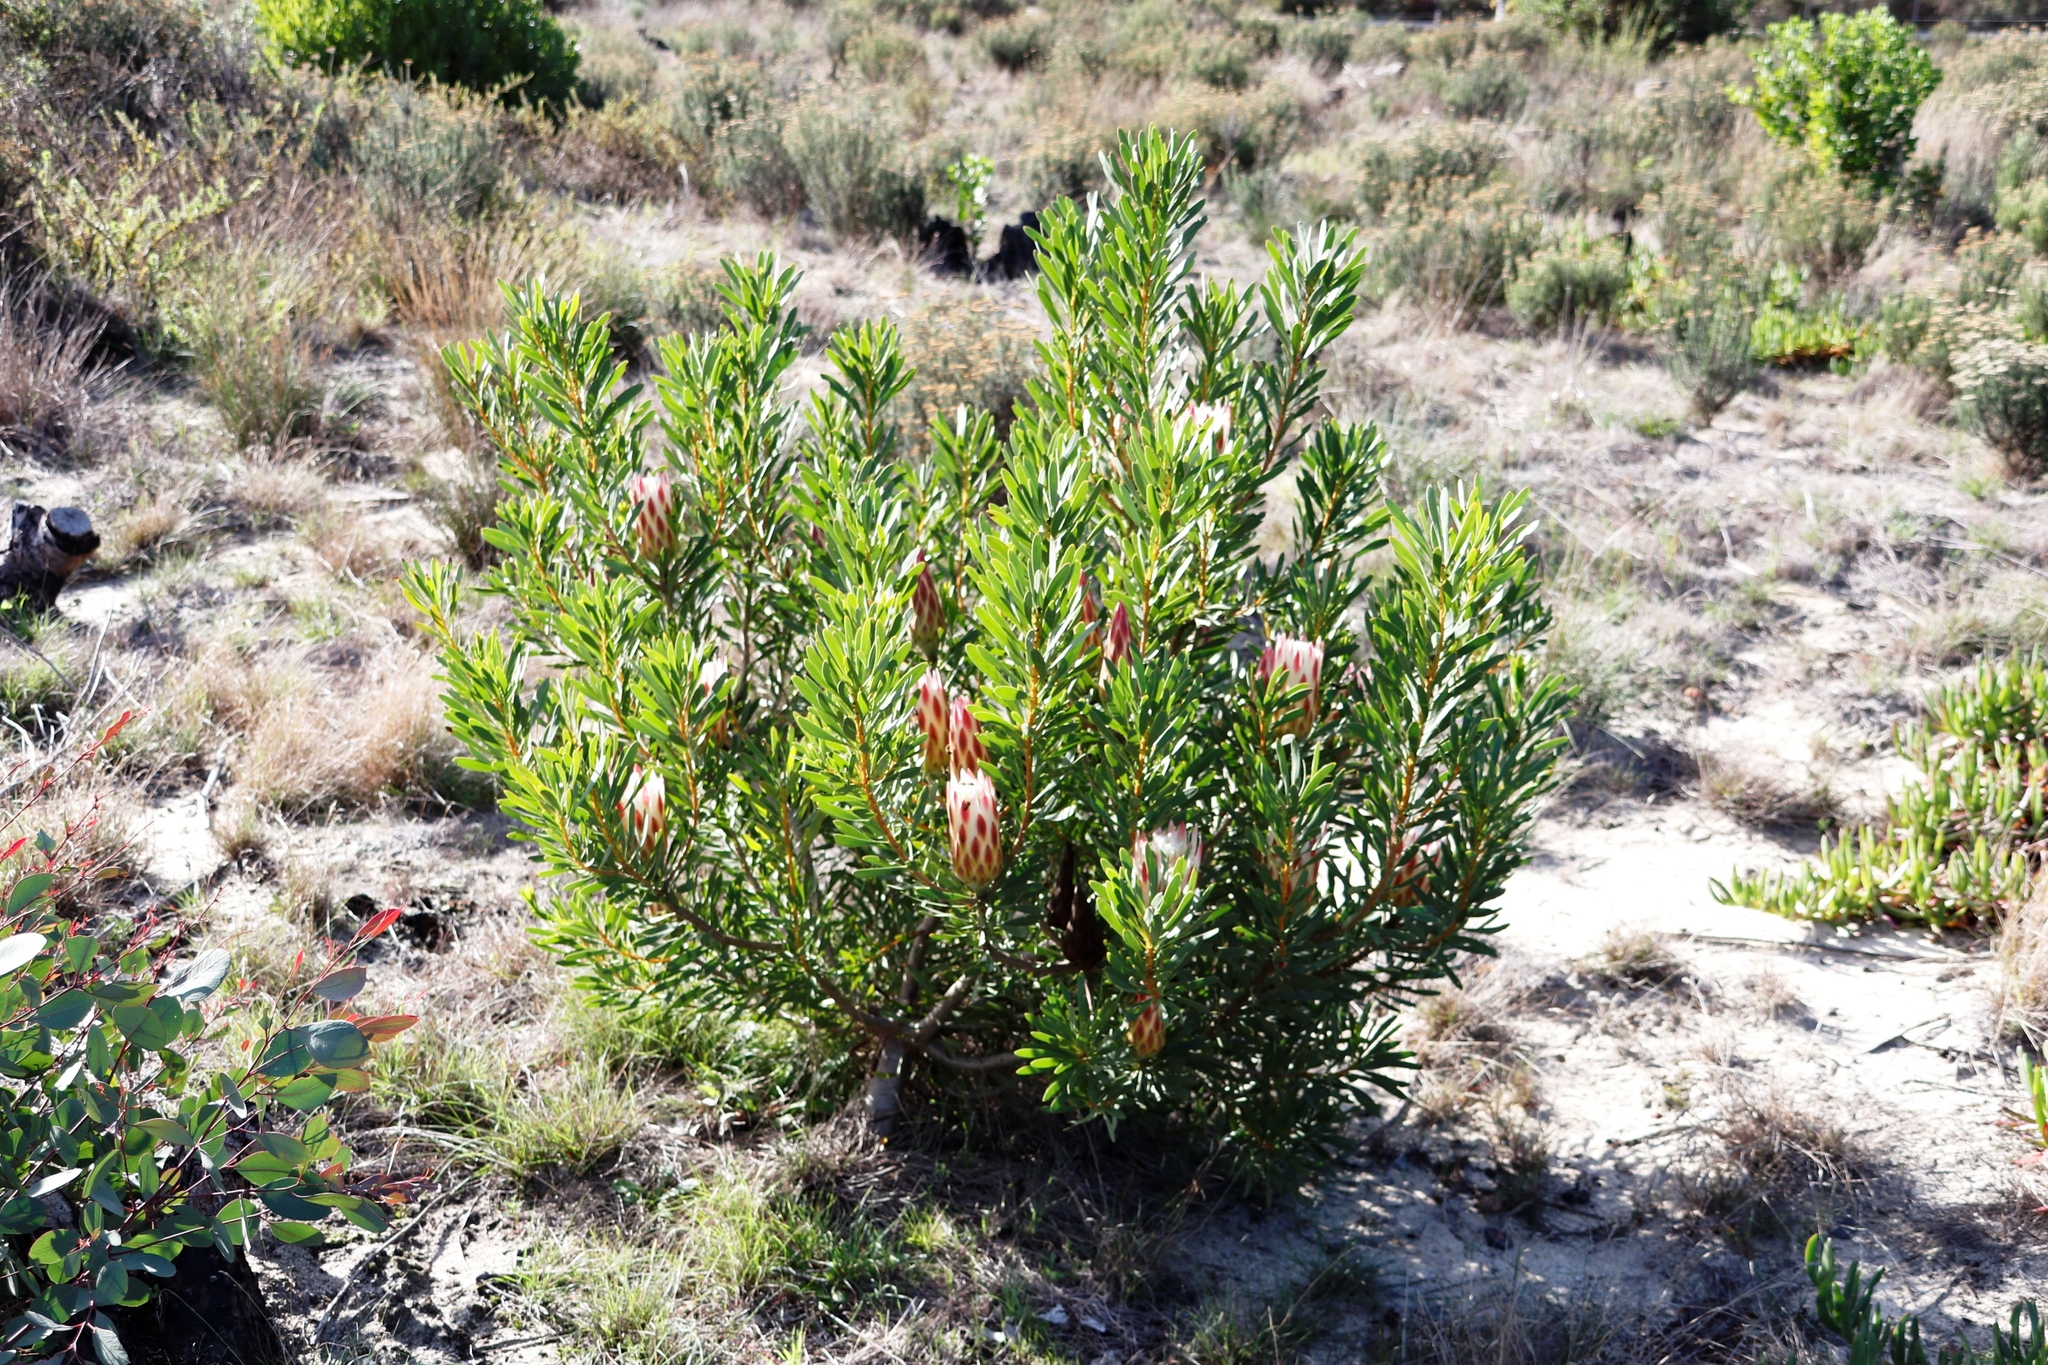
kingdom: Plantae
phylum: Tracheophyta
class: Magnoliopsida
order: Proteales
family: Proteaceae
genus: Protea
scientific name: Protea repens
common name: Sugarbush
